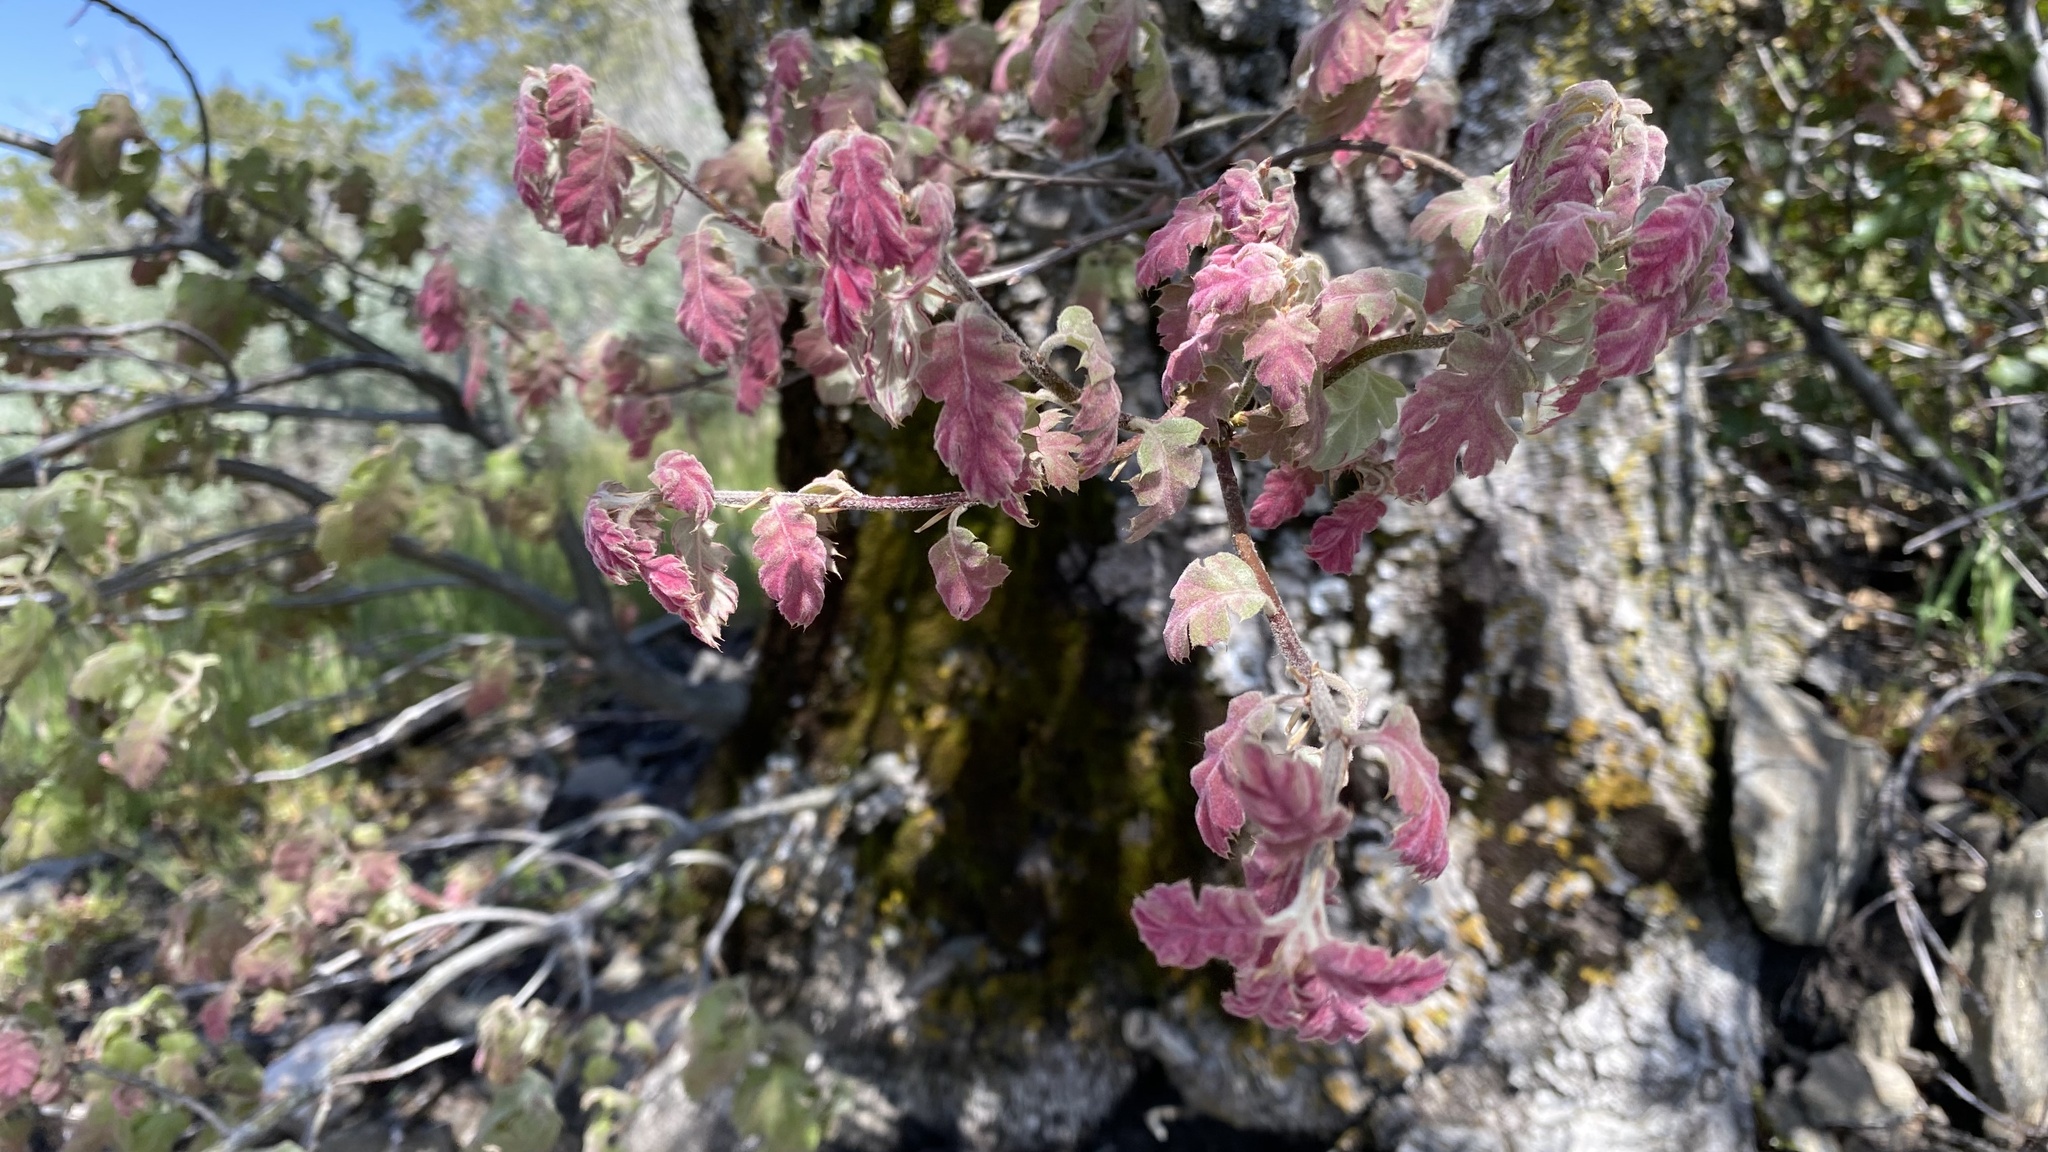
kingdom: Plantae
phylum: Tracheophyta
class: Magnoliopsida
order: Fagales
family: Fagaceae
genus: Quercus
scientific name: Quercus kelloggii
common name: California black oak
